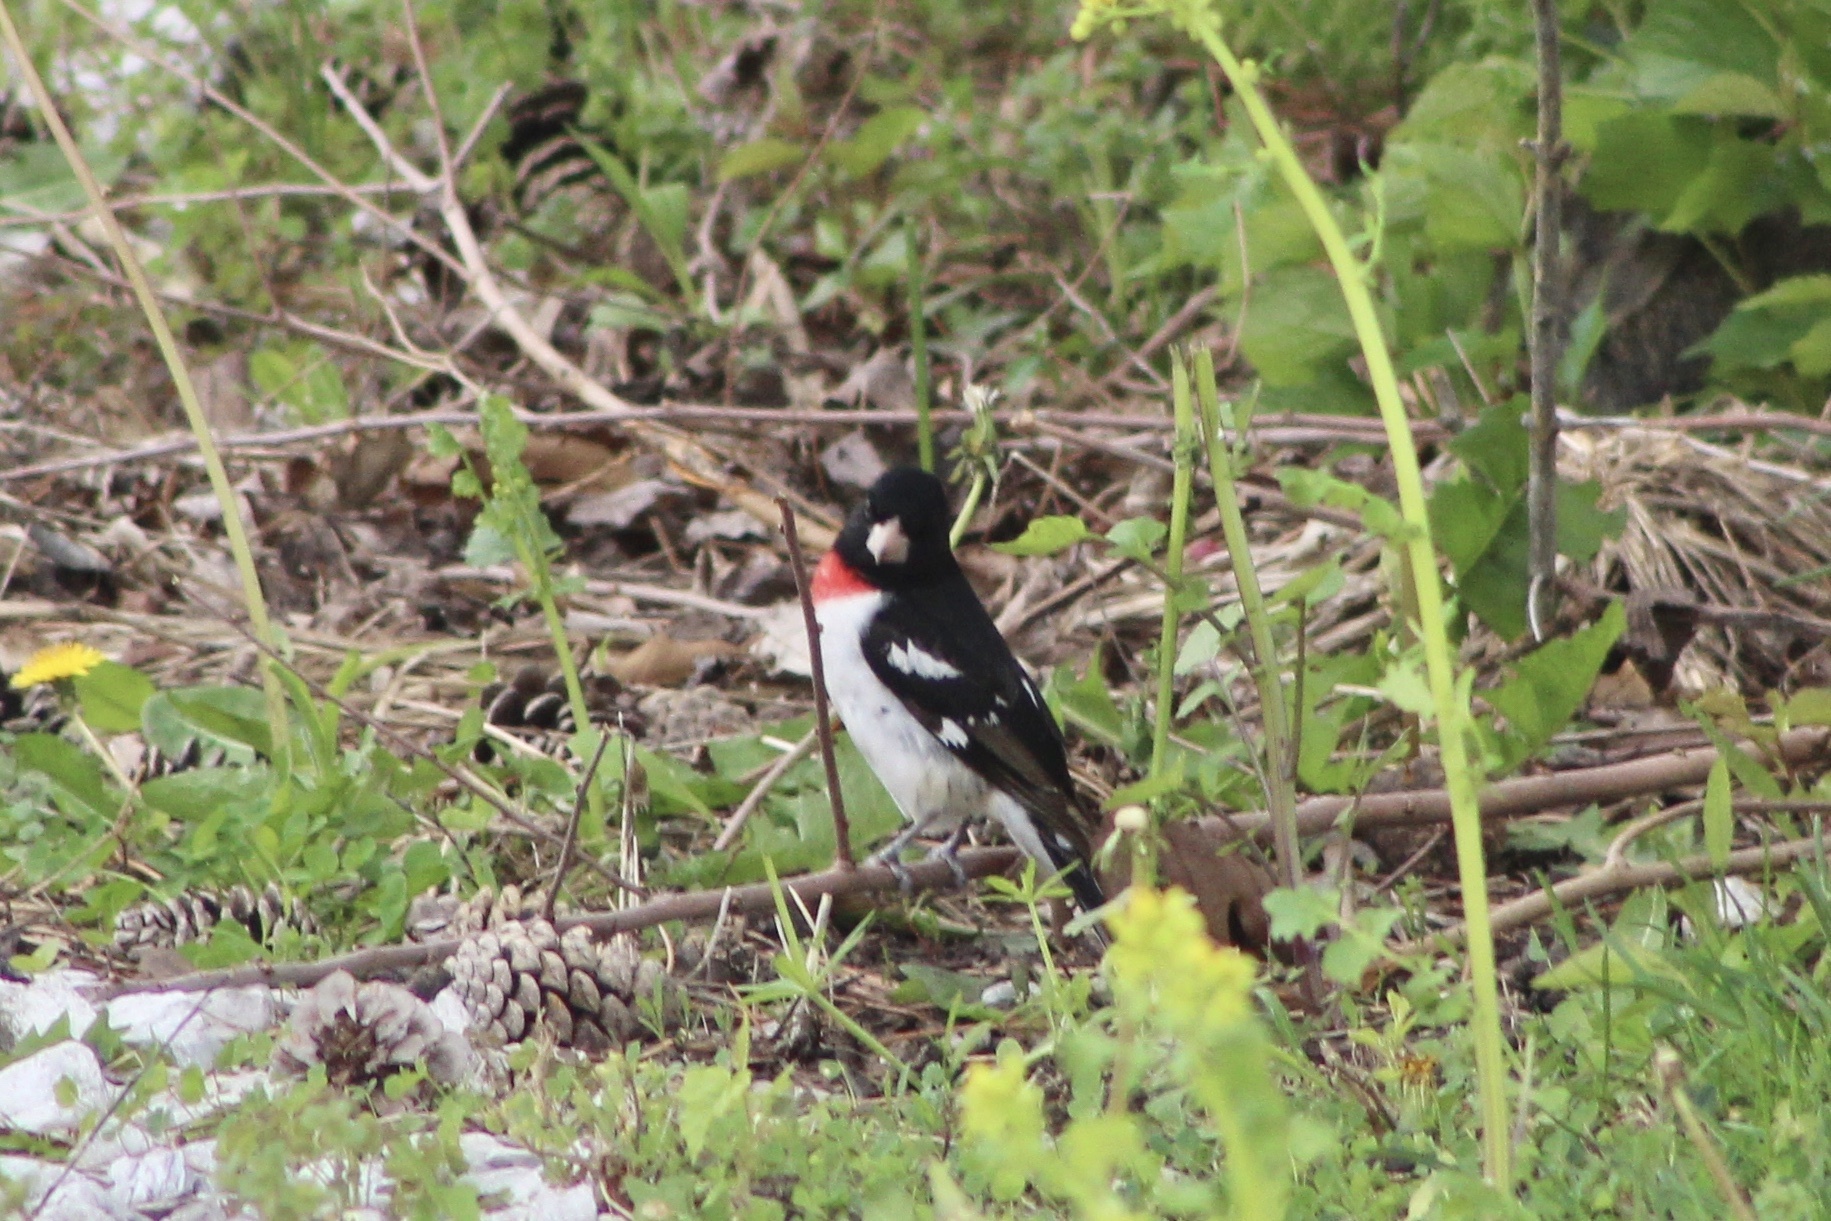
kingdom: Animalia
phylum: Chordata
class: Aves
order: Passeriformes
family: Cardinalidae
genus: Pheucticus
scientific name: Pheucticus ludovicianus
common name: Rose-breasted grosbeak
